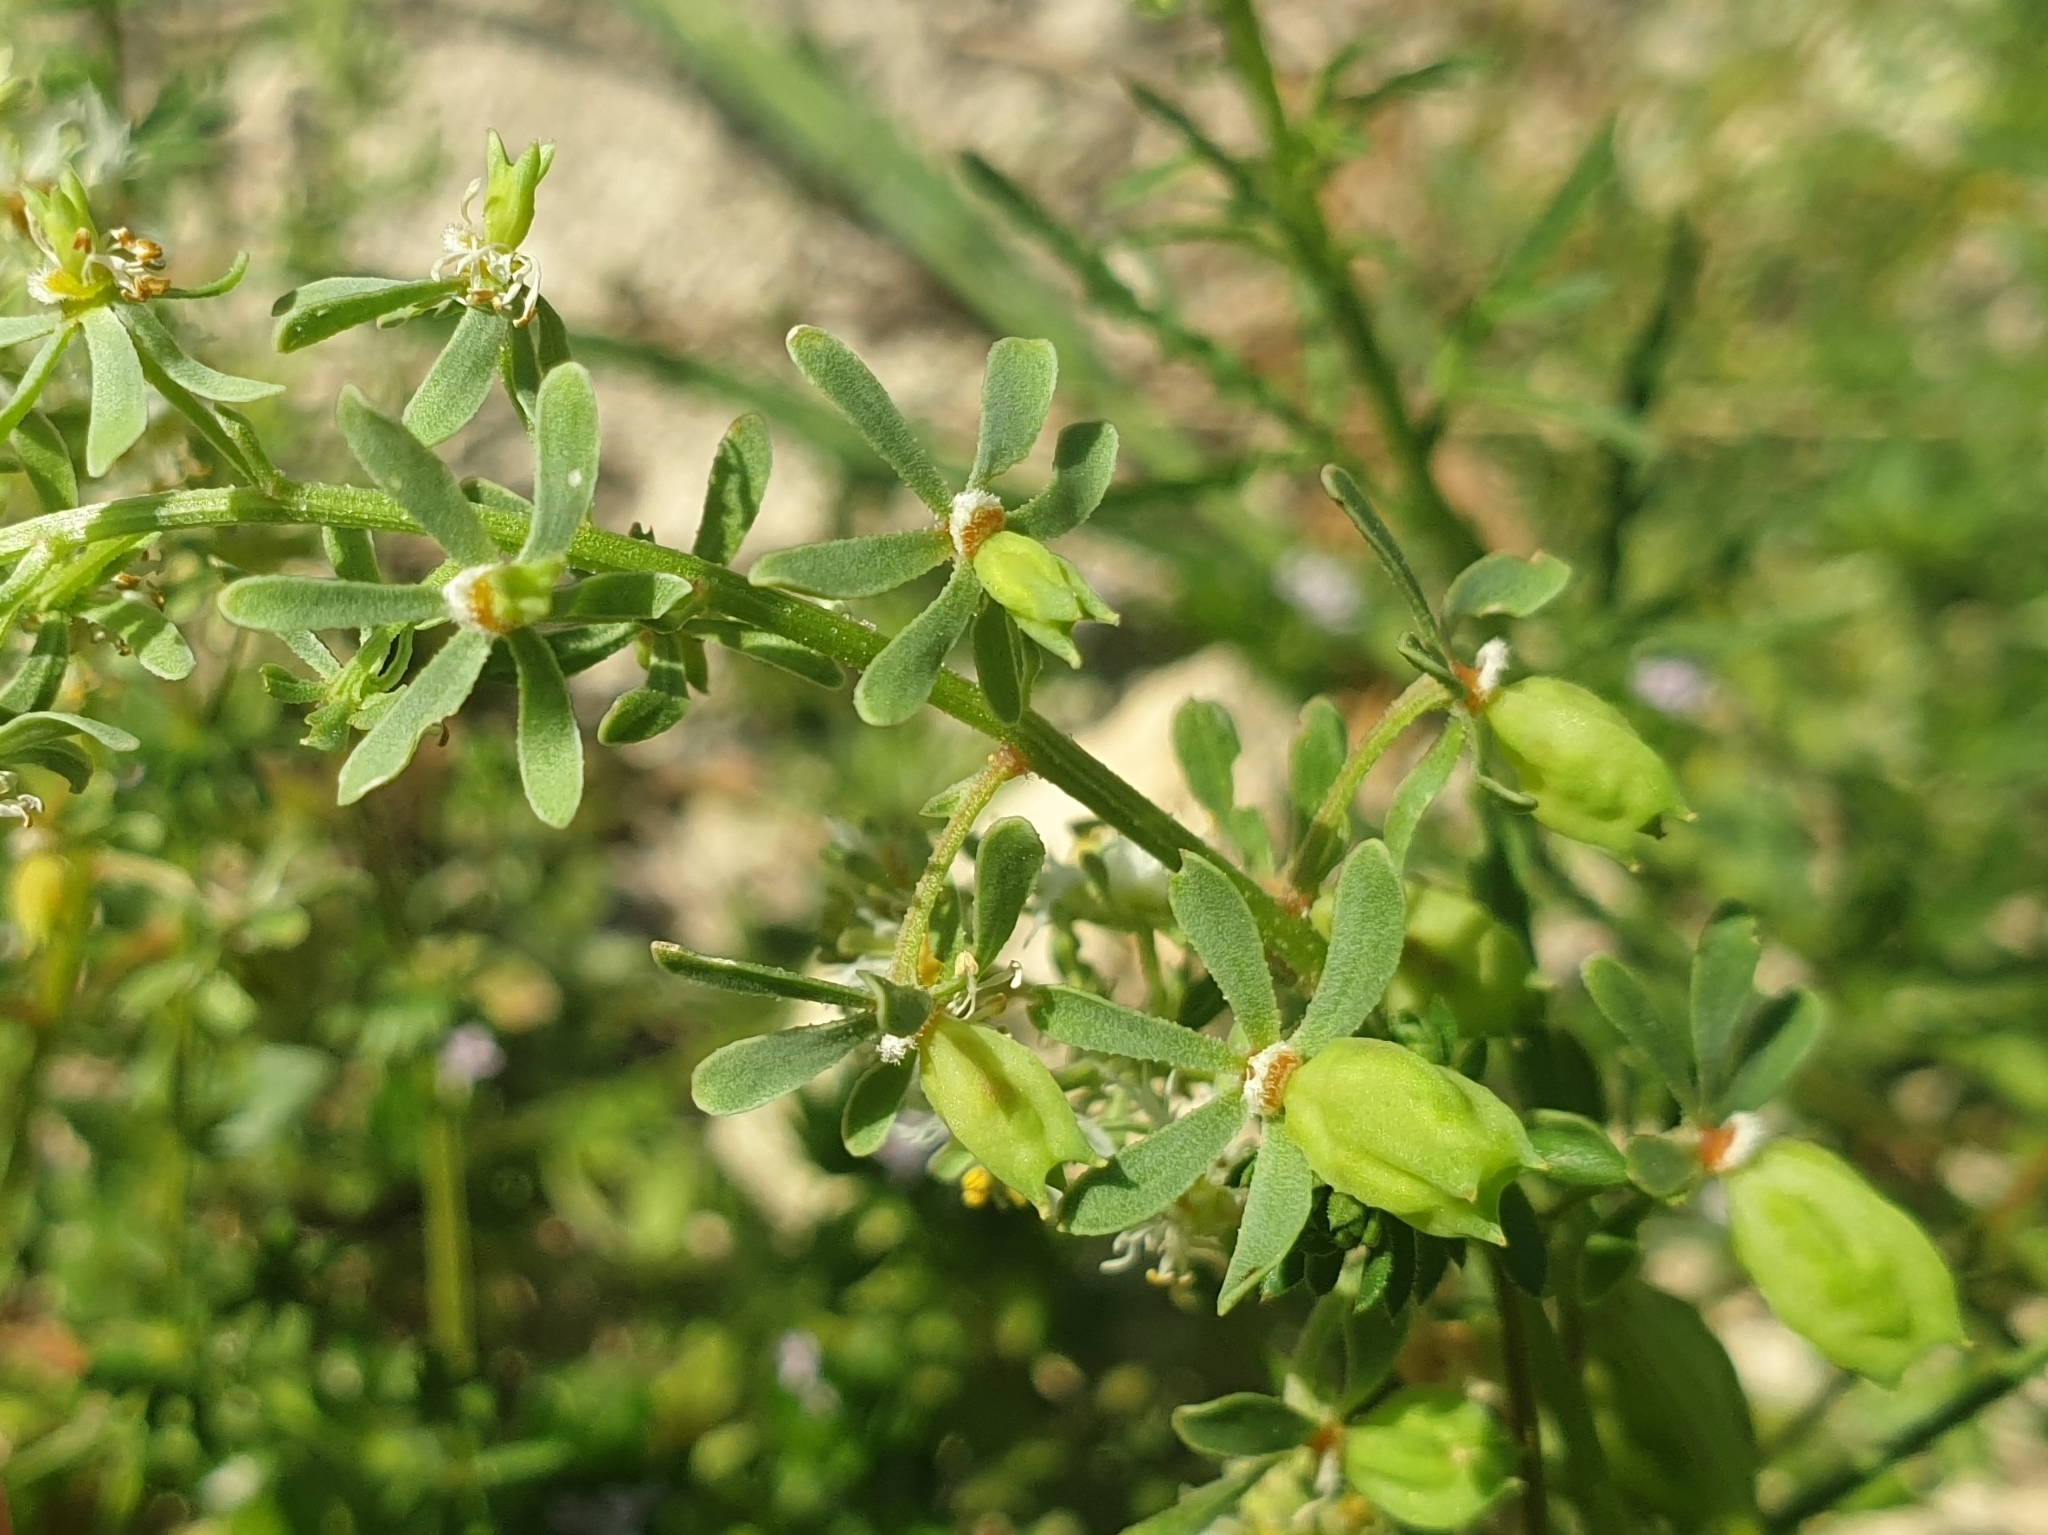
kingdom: Plantae
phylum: Tracheophyta
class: Magnoliopsida
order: Brassicales
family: Resedaceae
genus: Reseda
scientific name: Reseda phyteuma
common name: Corn mignonette
